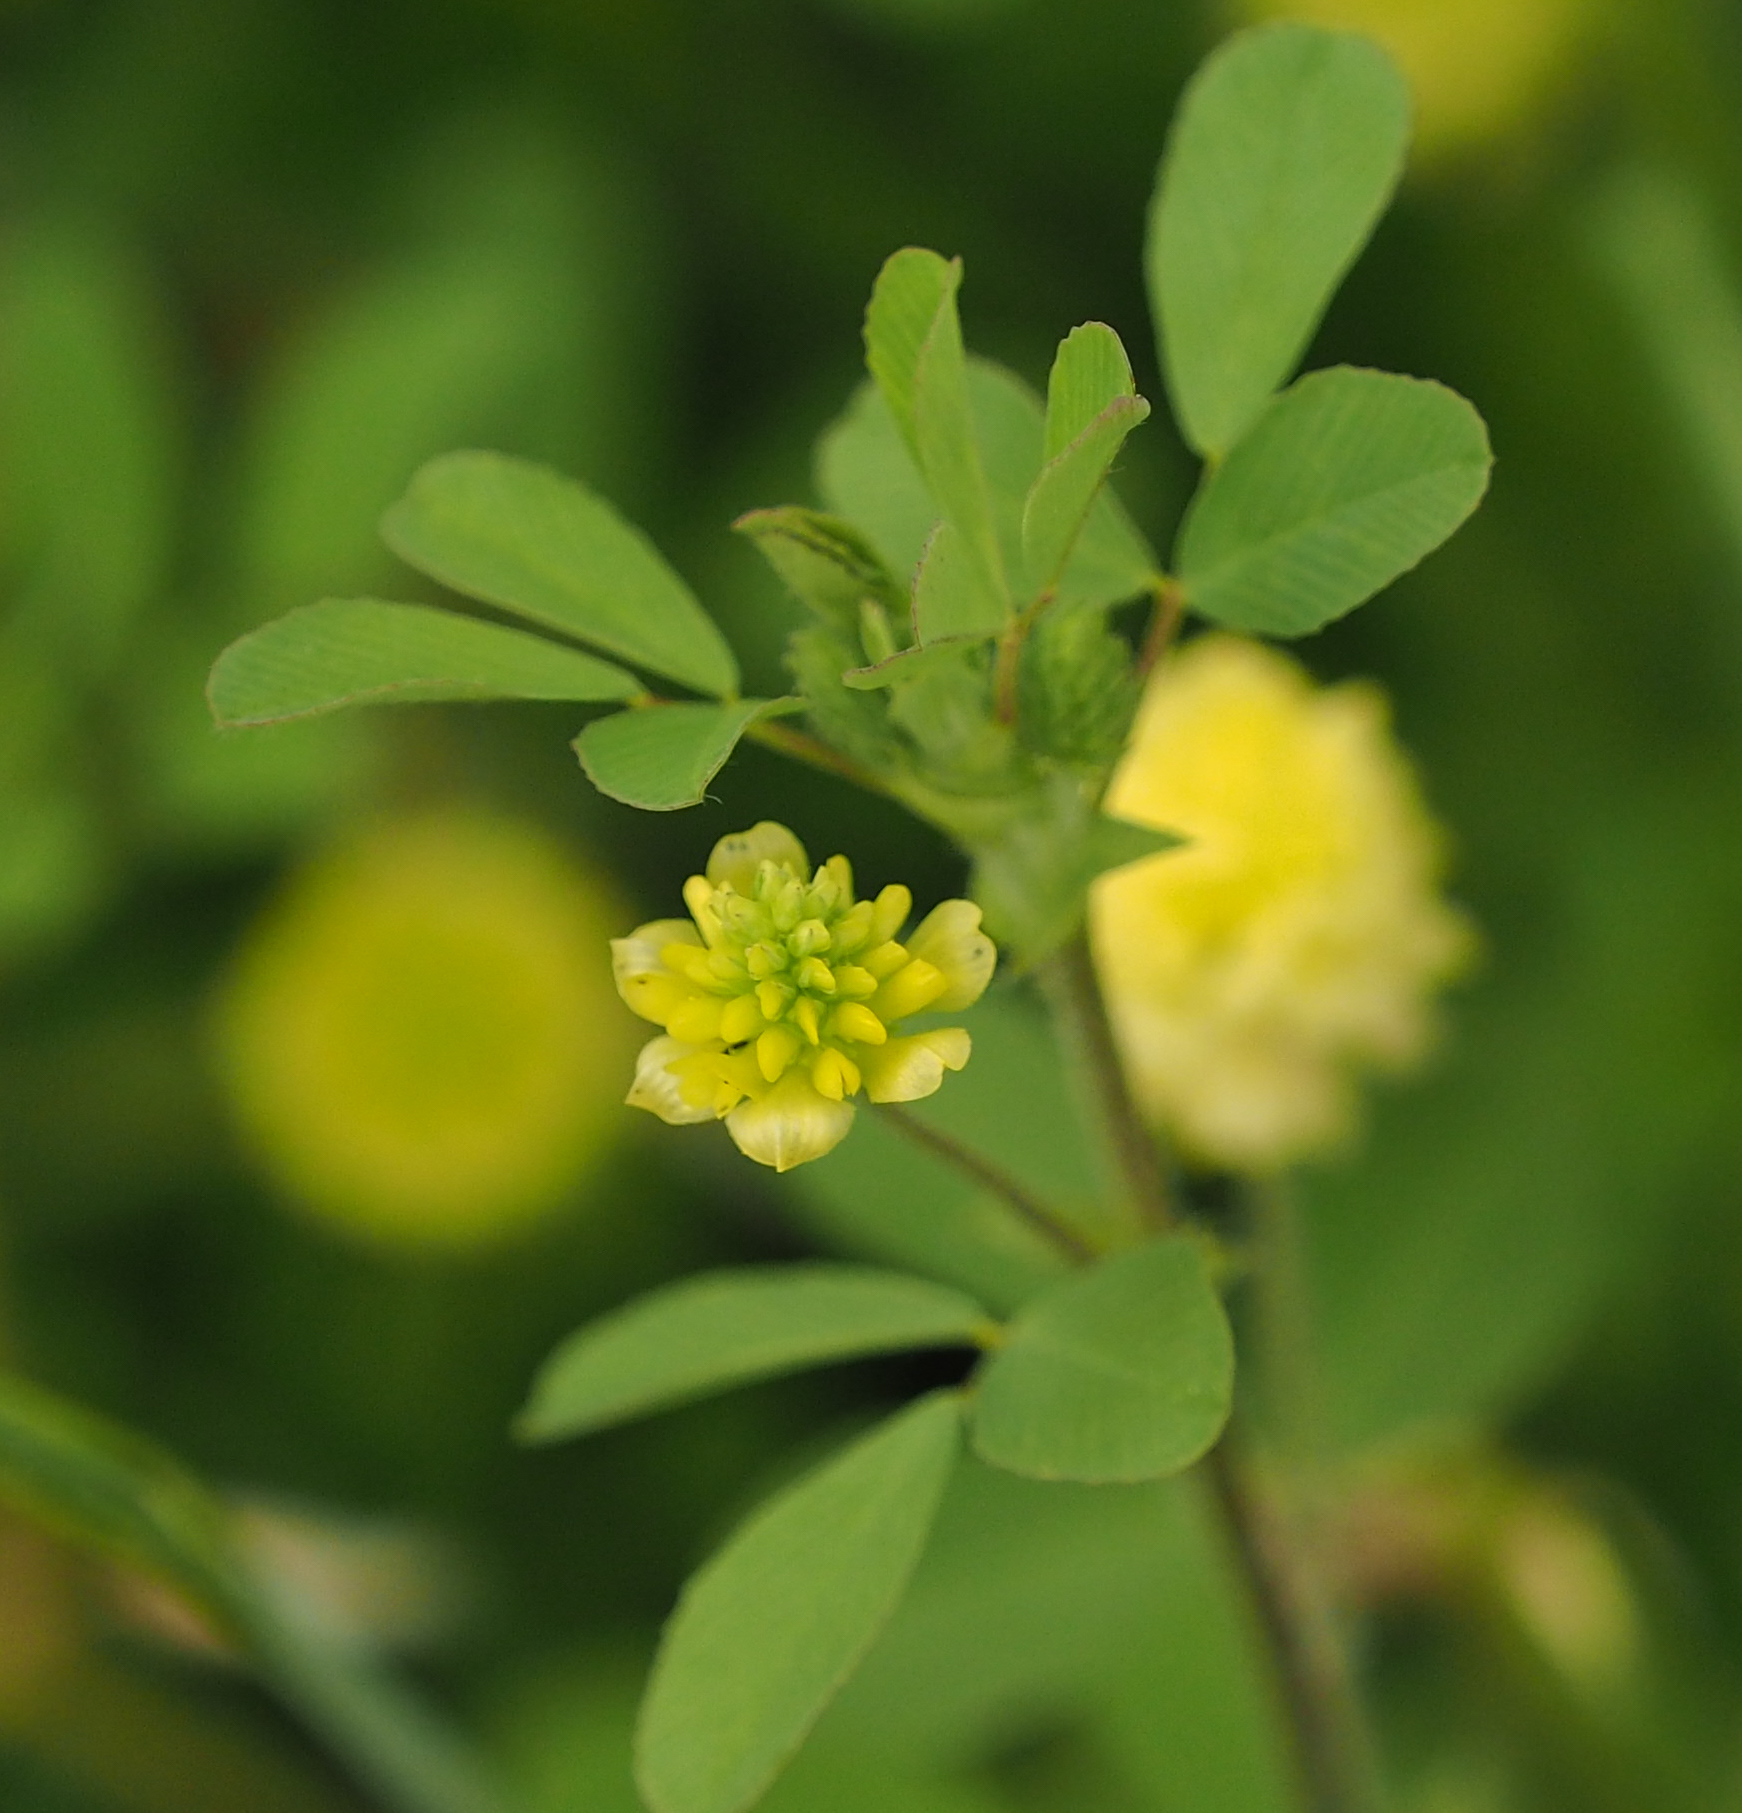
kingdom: Plantae
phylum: Tracheophyta
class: Magnoliopsida
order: Fabales
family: Fabaceae
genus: Trifolium
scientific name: Trifolium campestre
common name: Field clover
